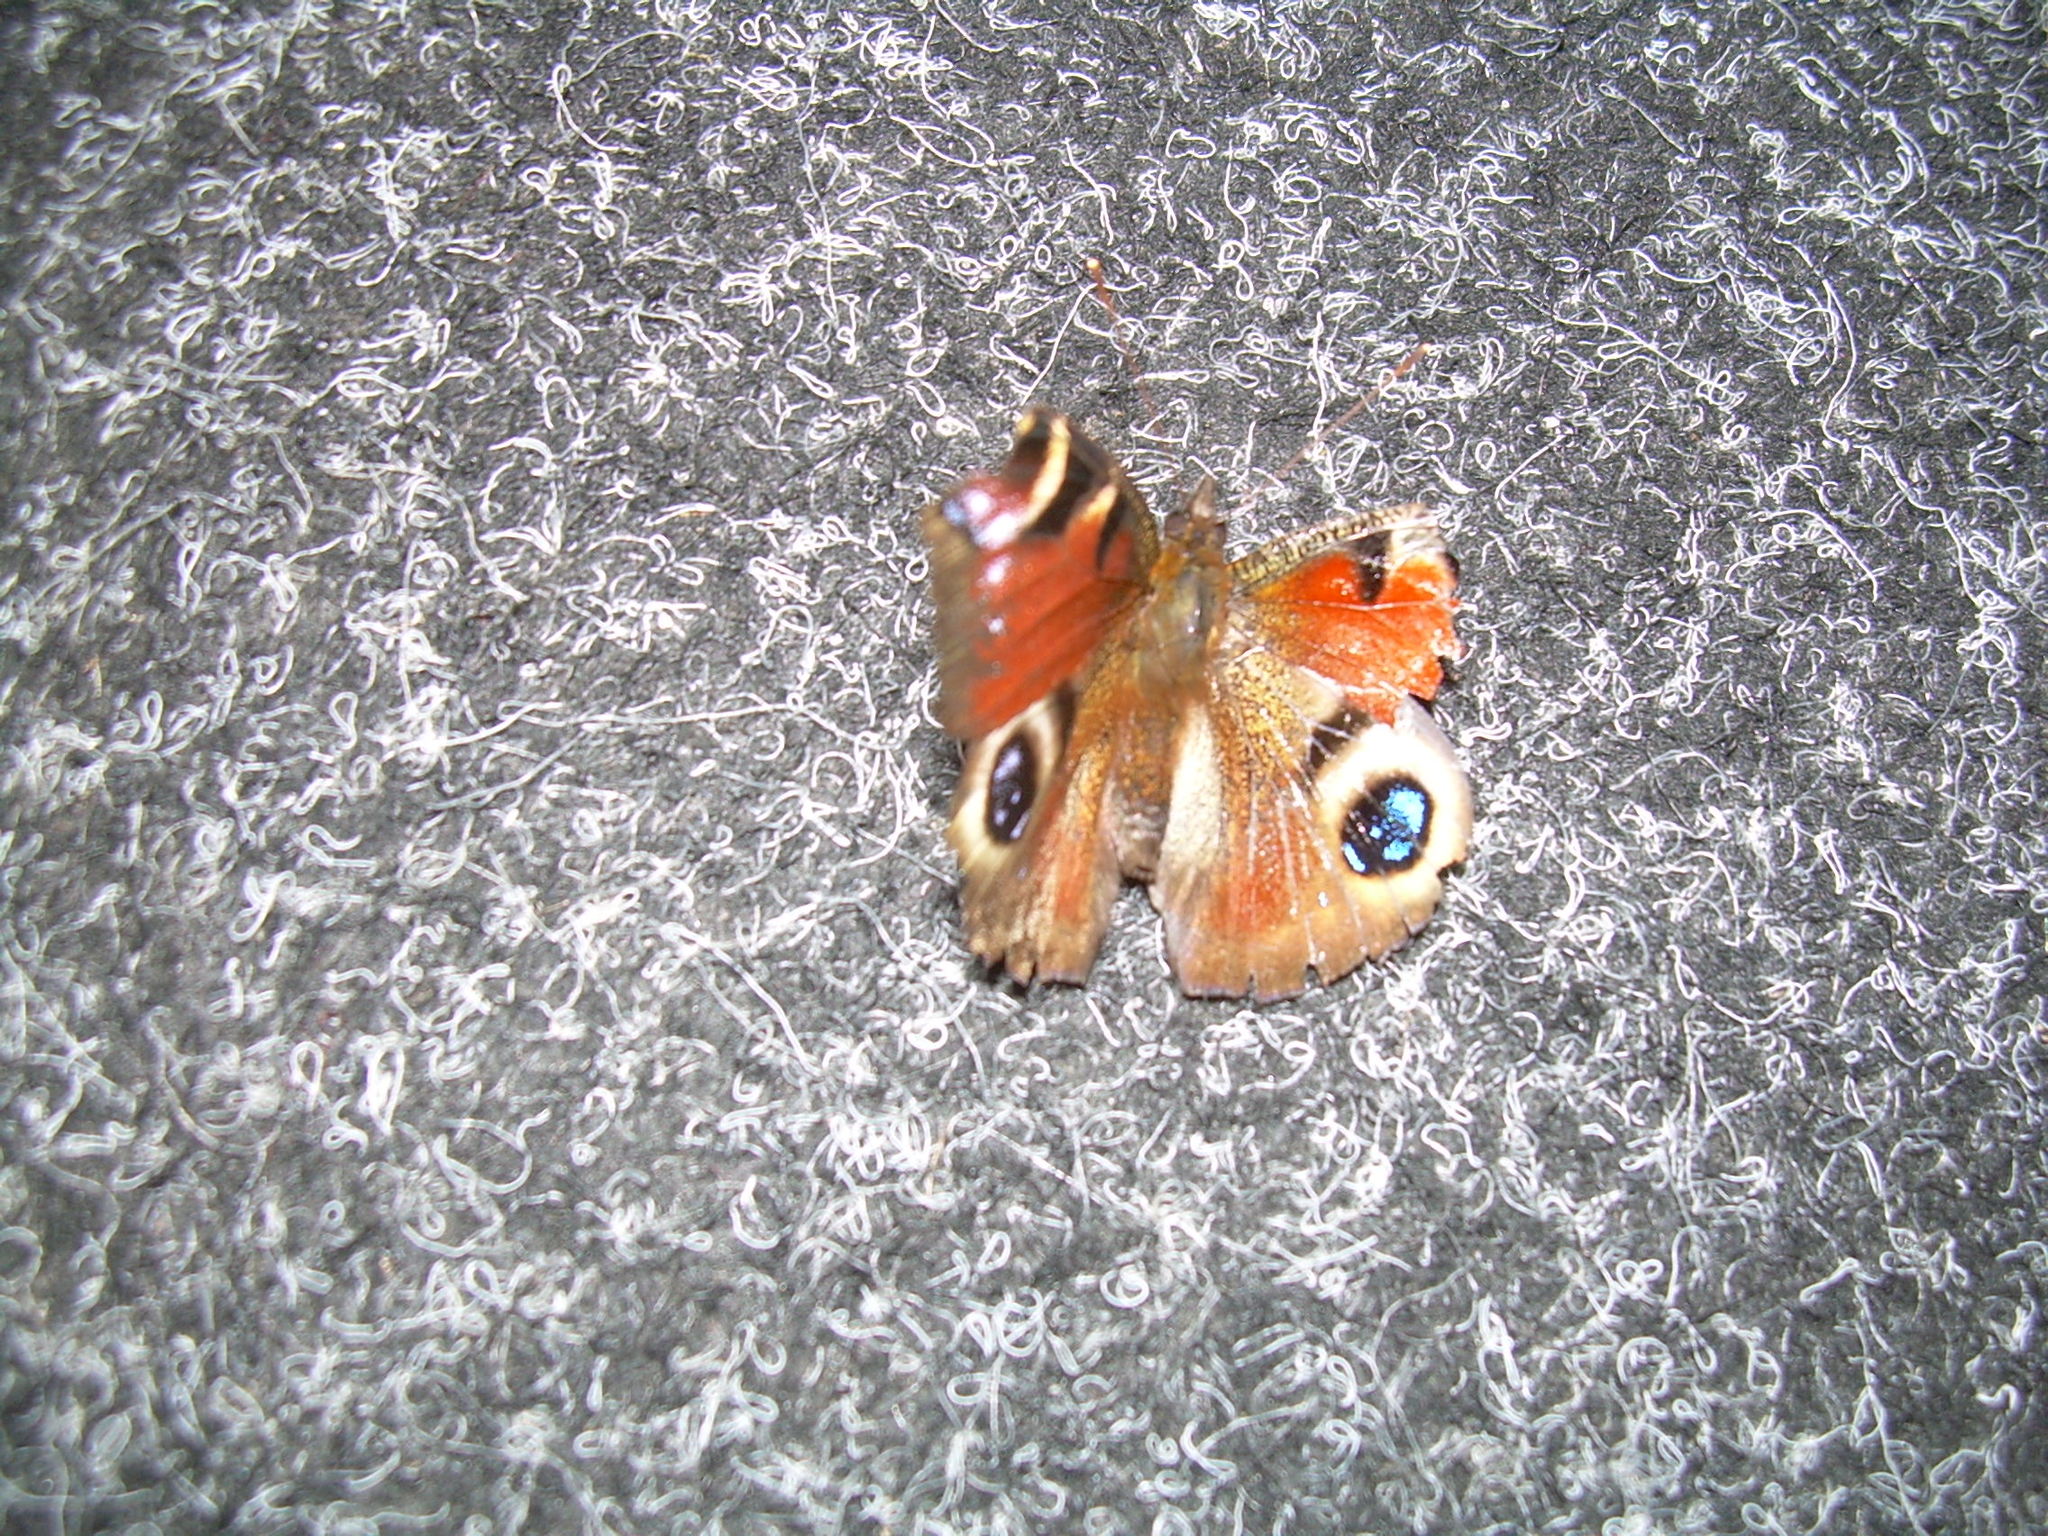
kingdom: Animalia
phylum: Arthropoda
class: Insecta
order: Lepidoptera
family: Nymphalidae
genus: Aglais
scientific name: Aglais io
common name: Peacock
